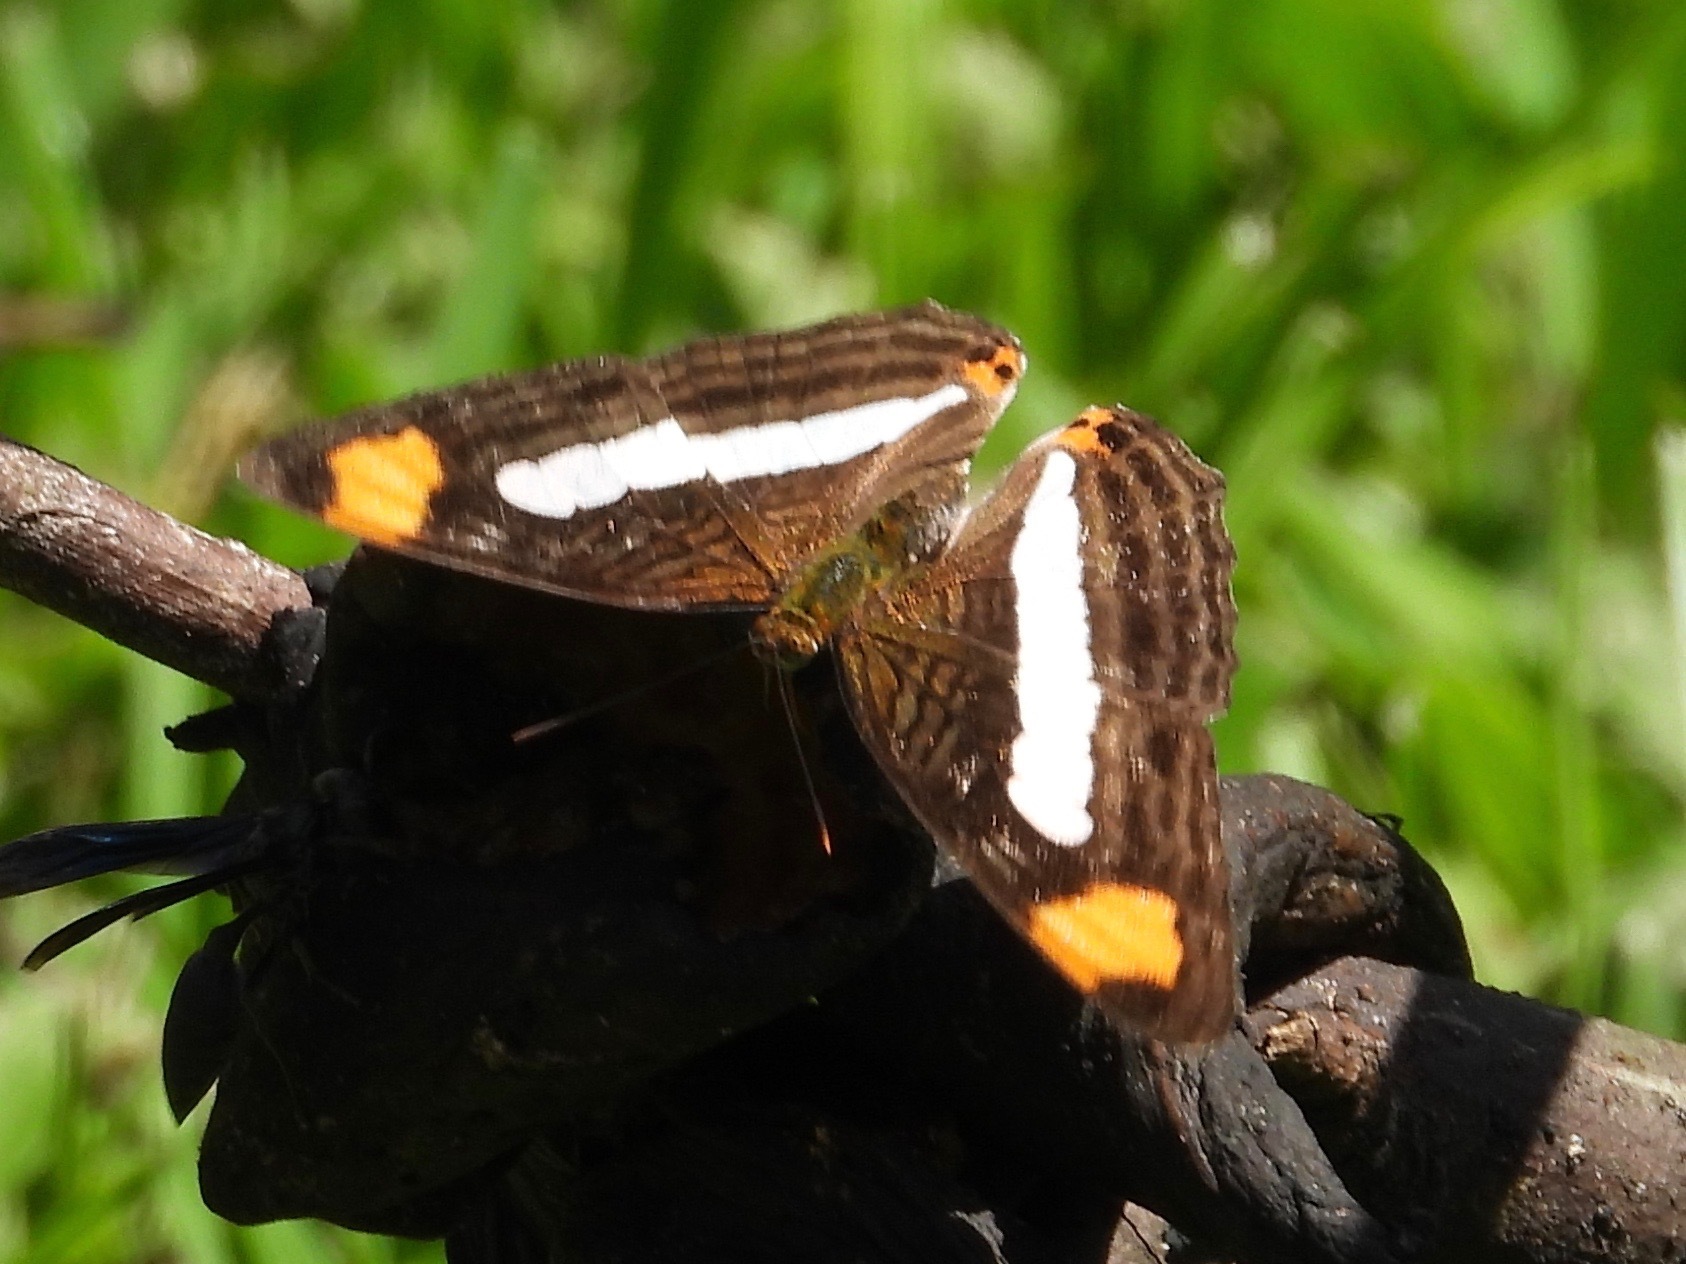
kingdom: Animalia
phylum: Arthropoda
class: Insecta
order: Lepidoptera
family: Nymphalidae
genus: Limenitis
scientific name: Limenitis iphiclus
